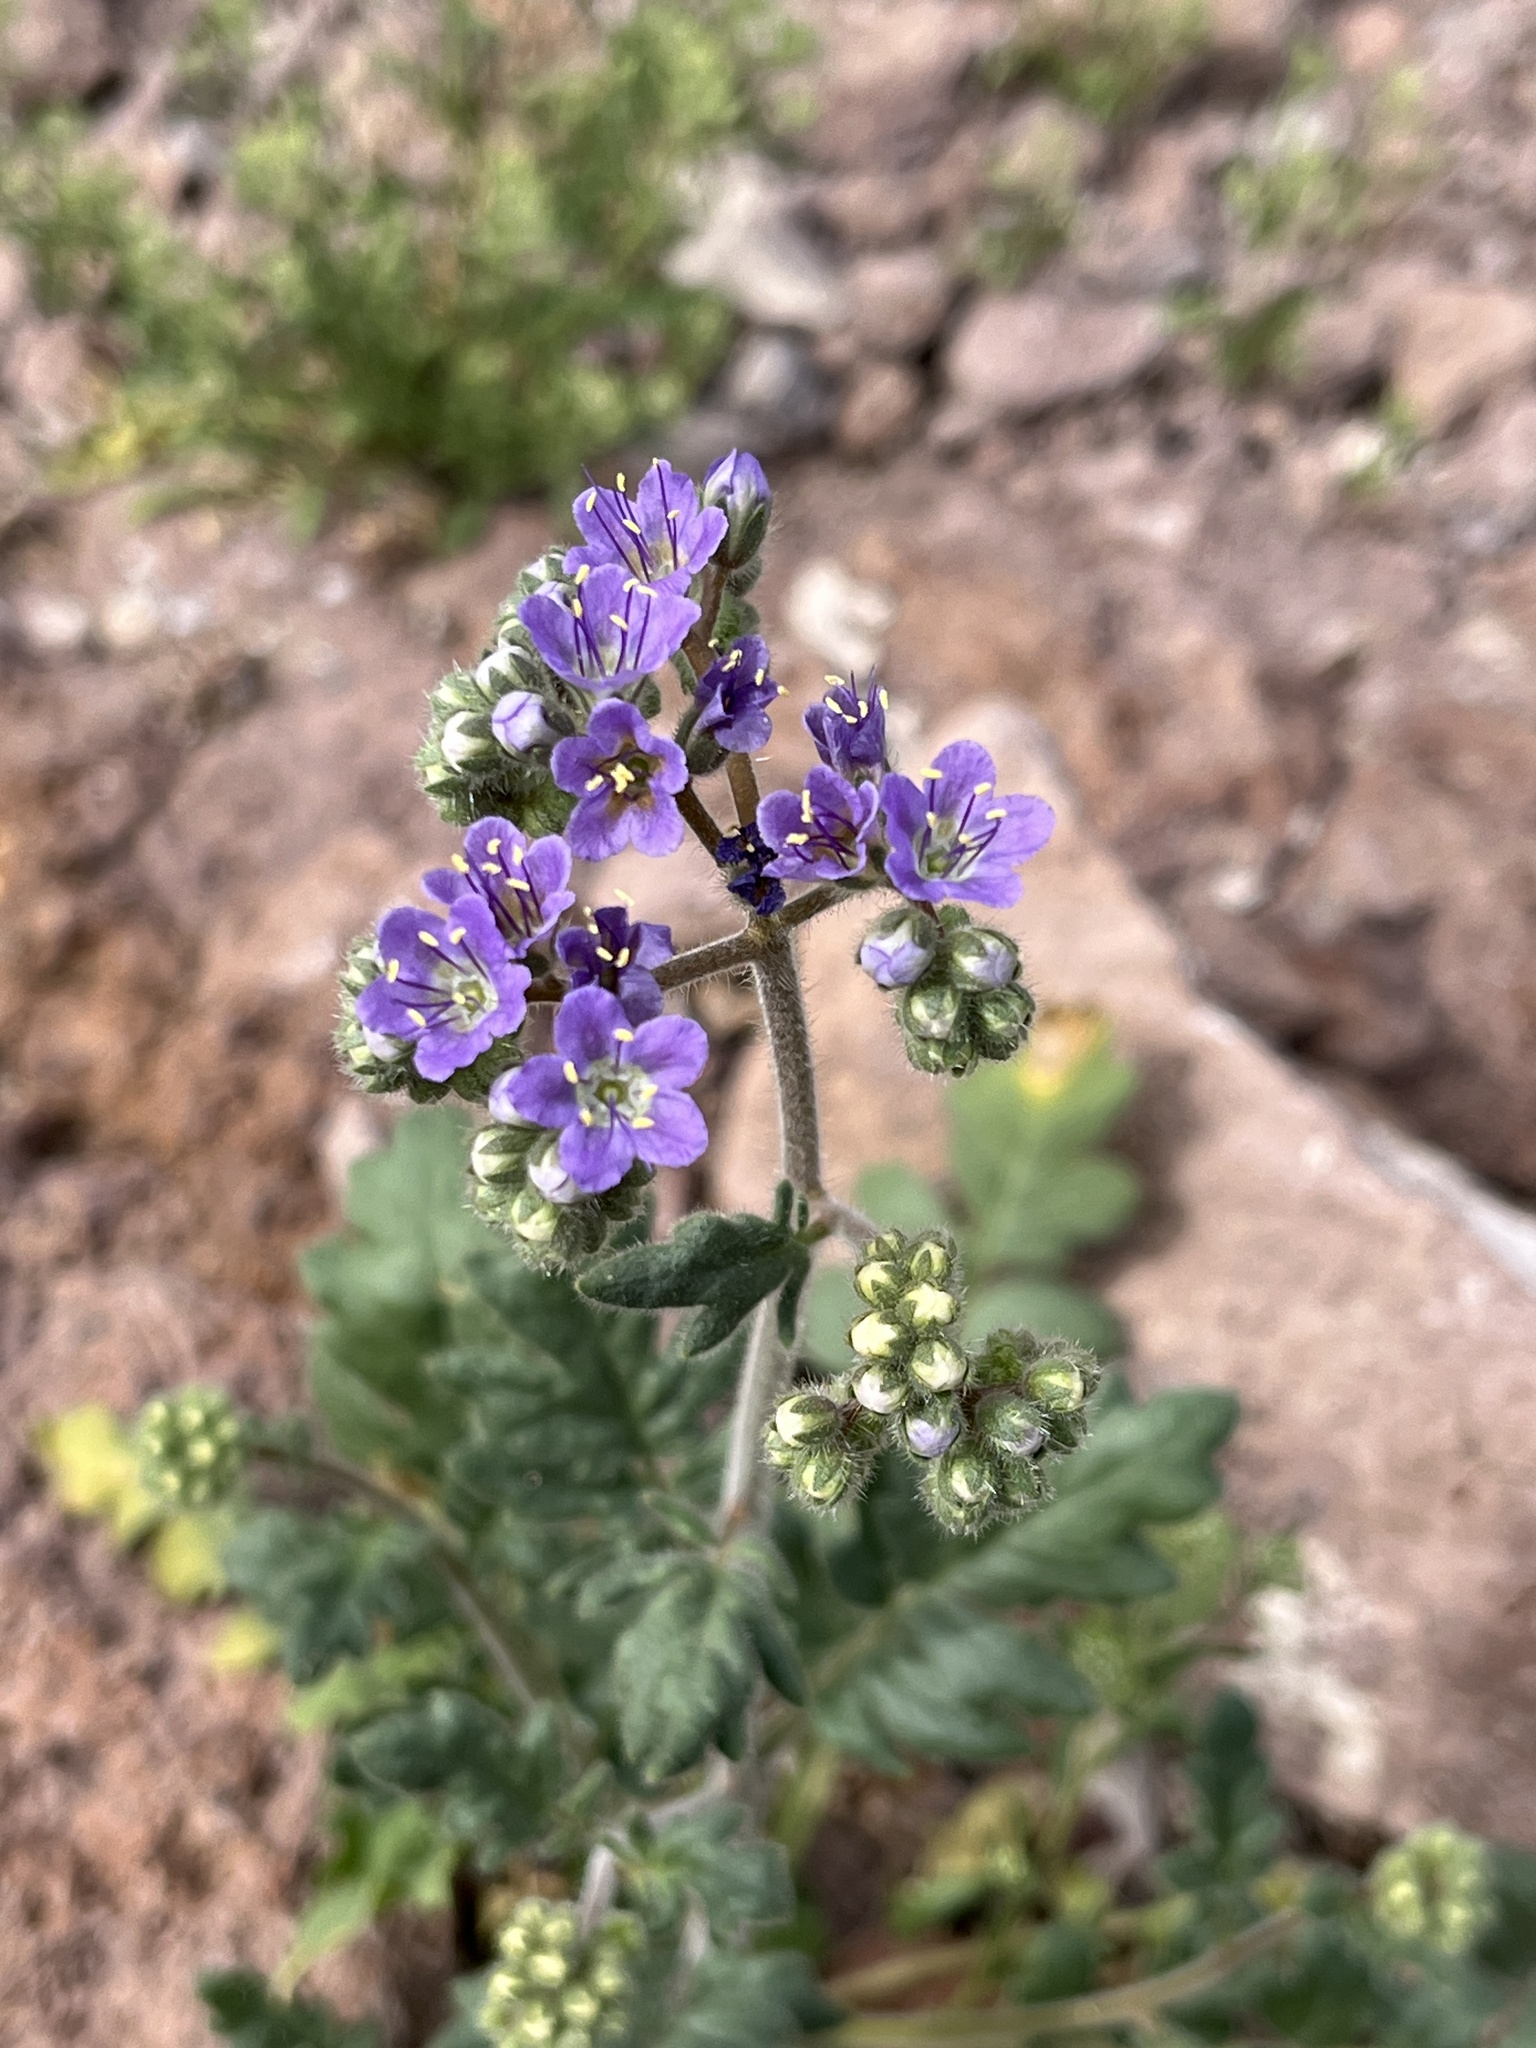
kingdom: Plantae
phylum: Tracheophyta
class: Magnoliopsida
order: Boraginales
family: Hydrophyllaceae
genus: Phacelia
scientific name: Phacelia crenulata
